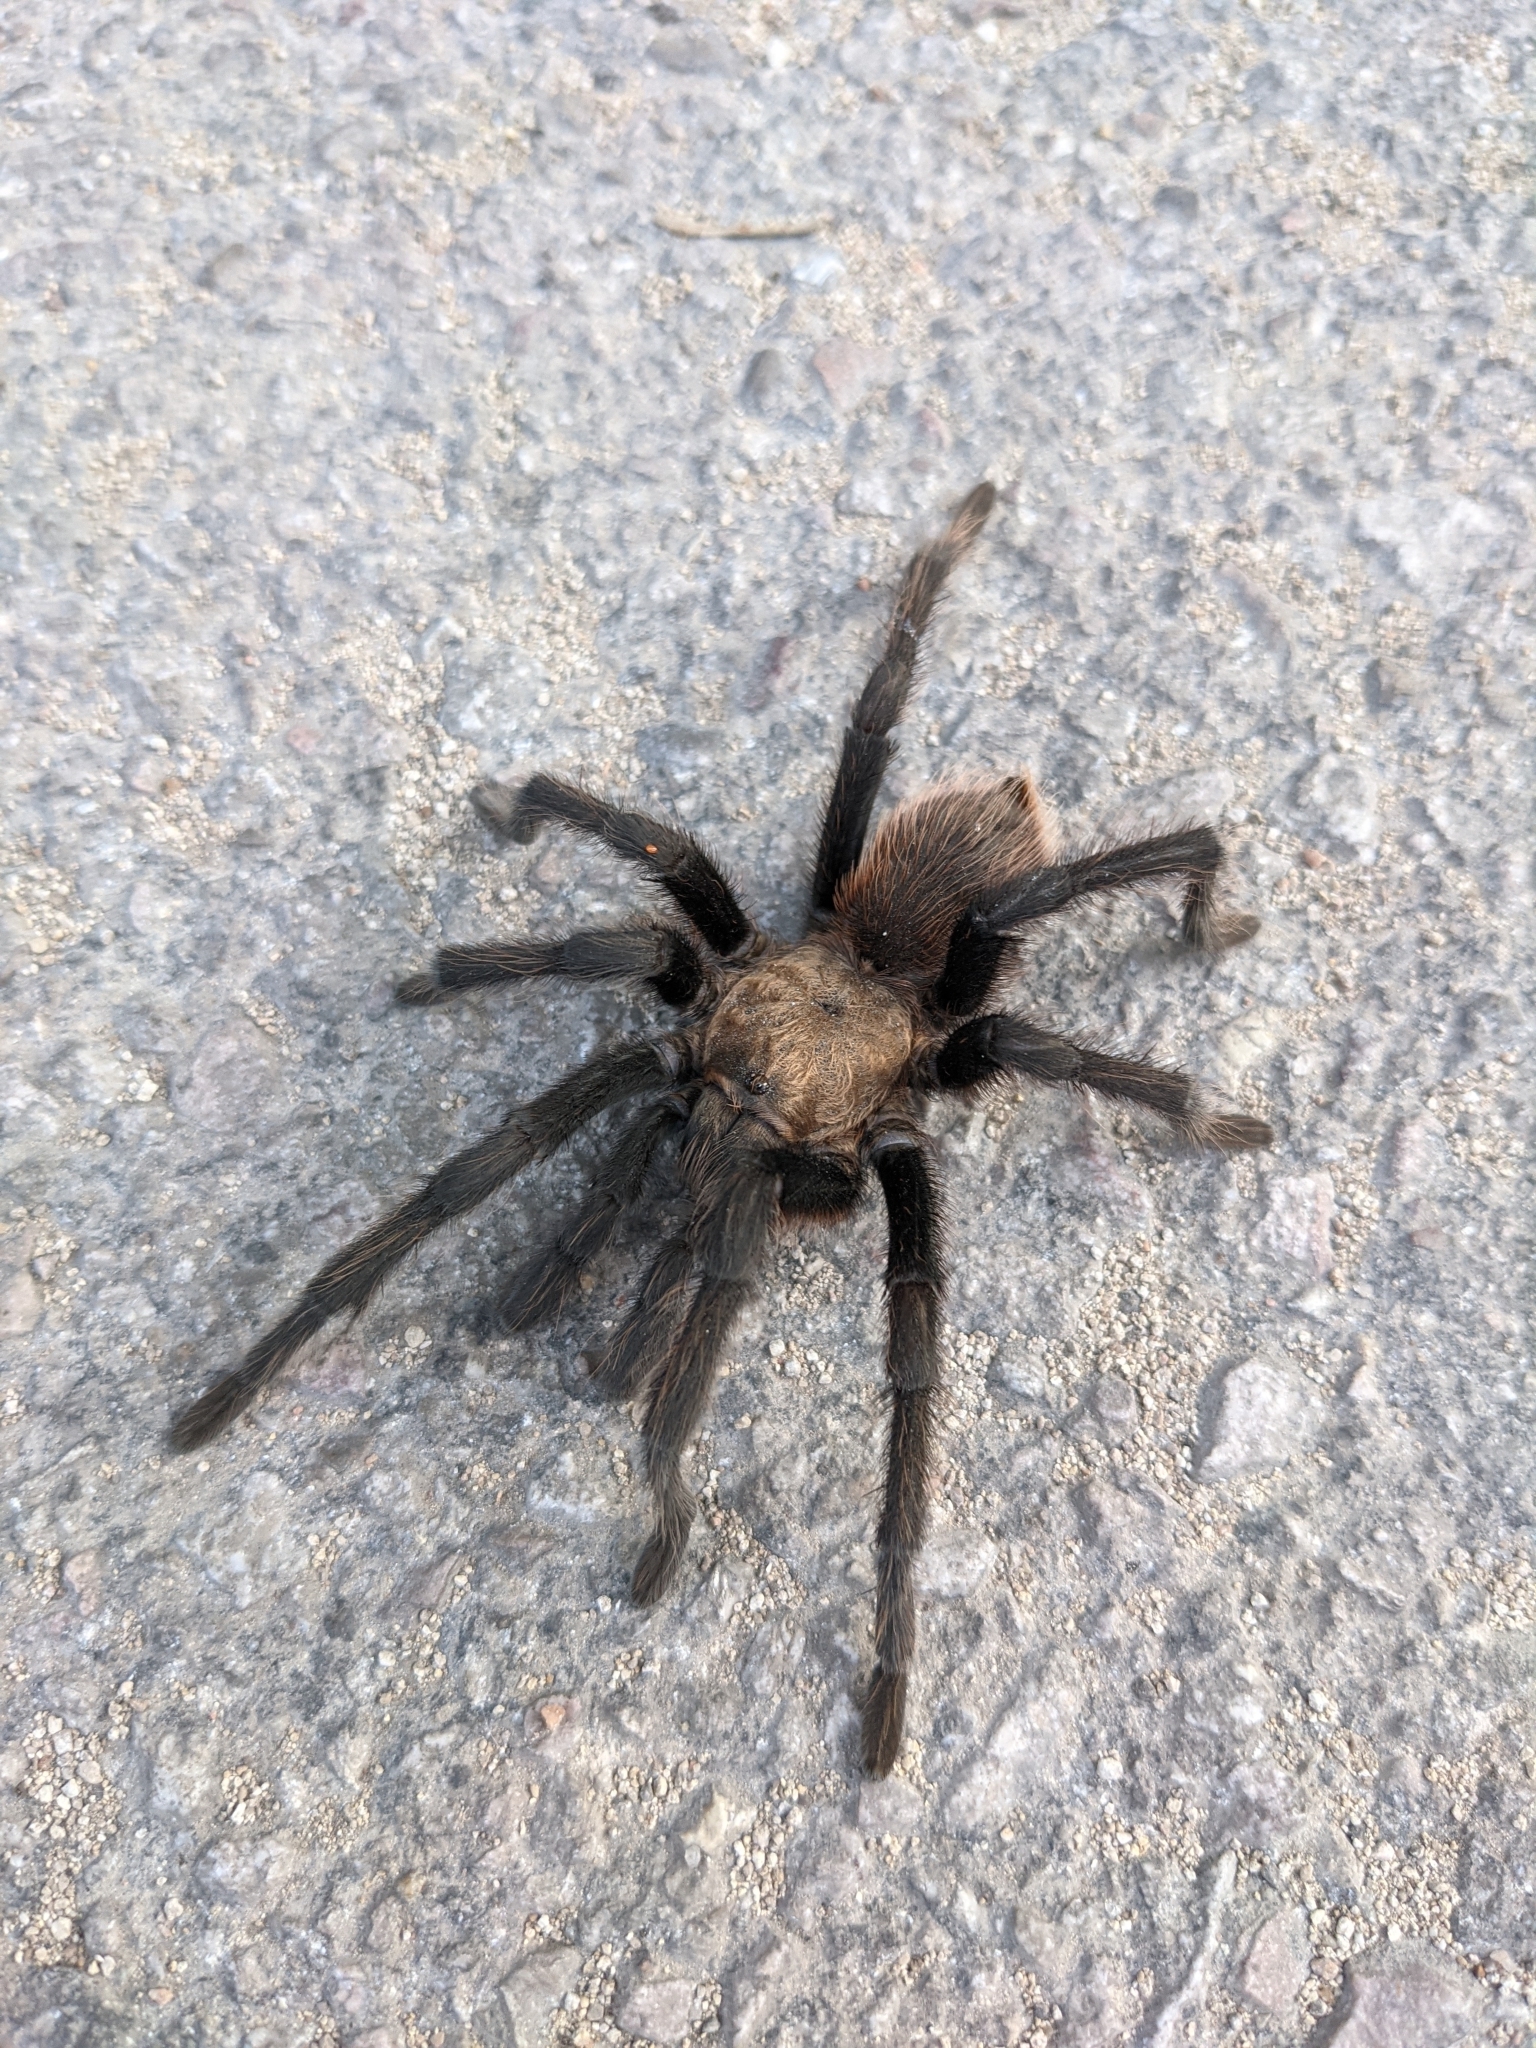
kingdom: Animalia
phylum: Arthropoda
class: Arachnida
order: Araneae
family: Theraphosidae
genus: Aphonopelma
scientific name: Aphonopelma hentzi
